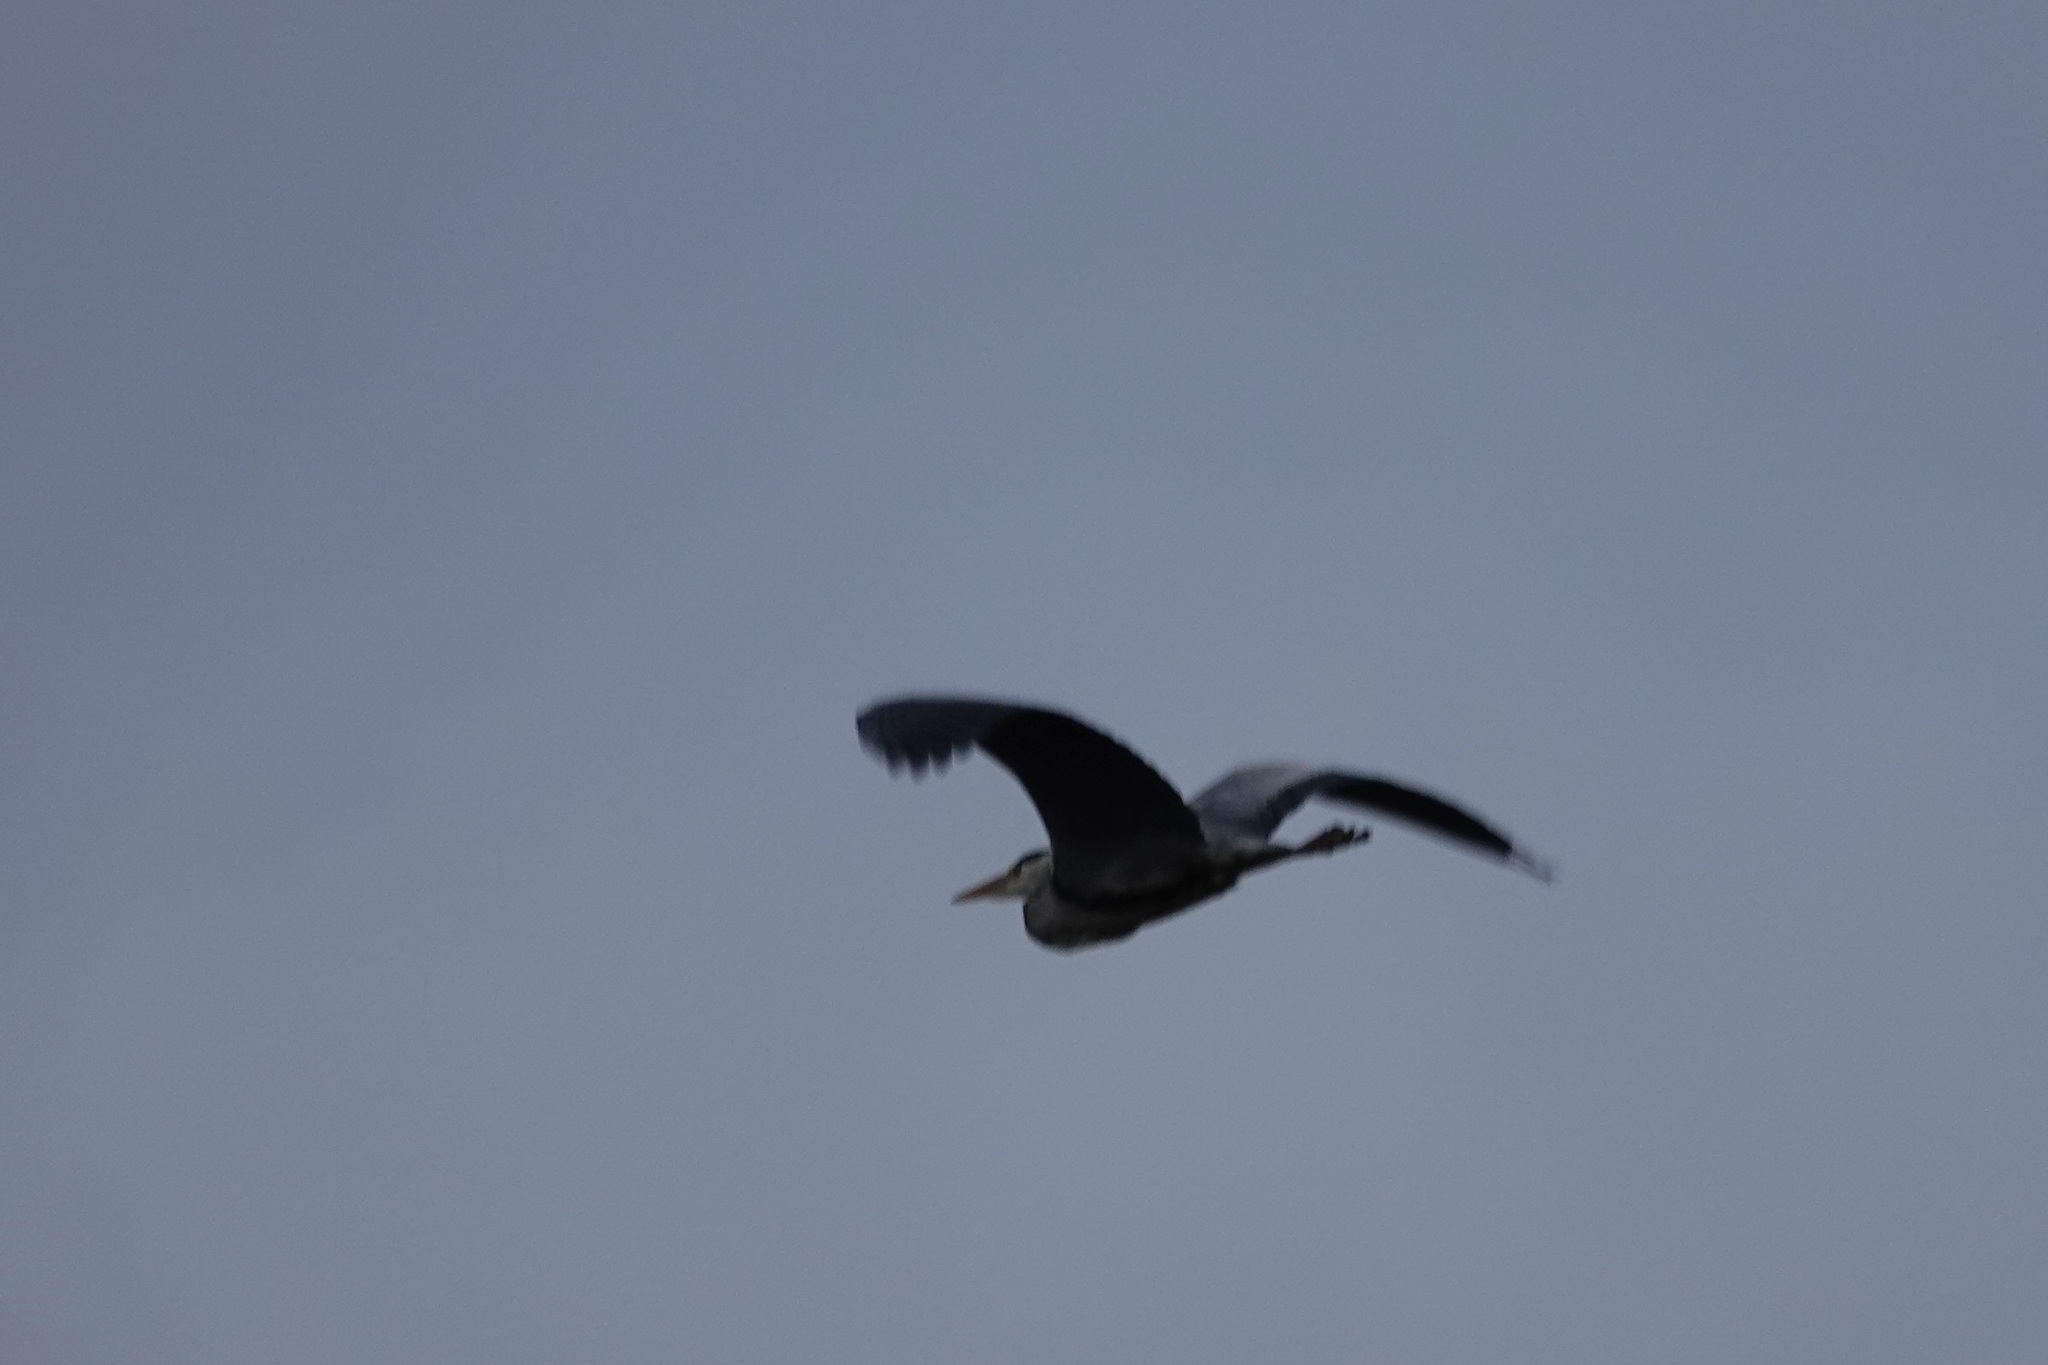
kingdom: Animalia
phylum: Chordata
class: Aves
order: Pelecaniformes
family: Ardeidae
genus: Ardea
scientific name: Ardea cinerea
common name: Grey heron
